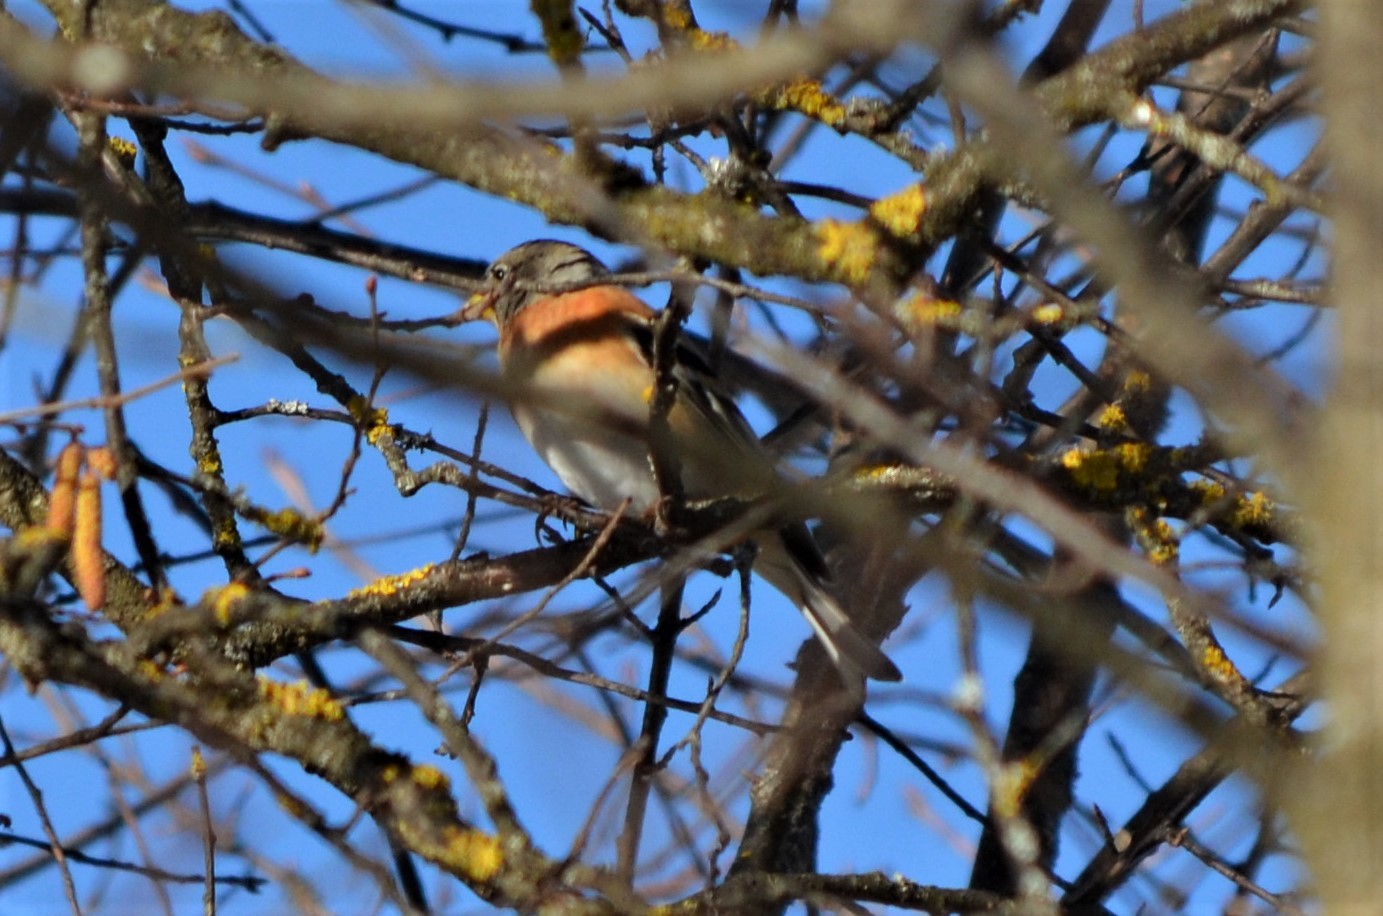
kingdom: Animalia
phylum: Chordata
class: Aves
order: Passeriformes
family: Fringillidae
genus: Fringilla
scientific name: Fringilla montifringilla
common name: Brambling
